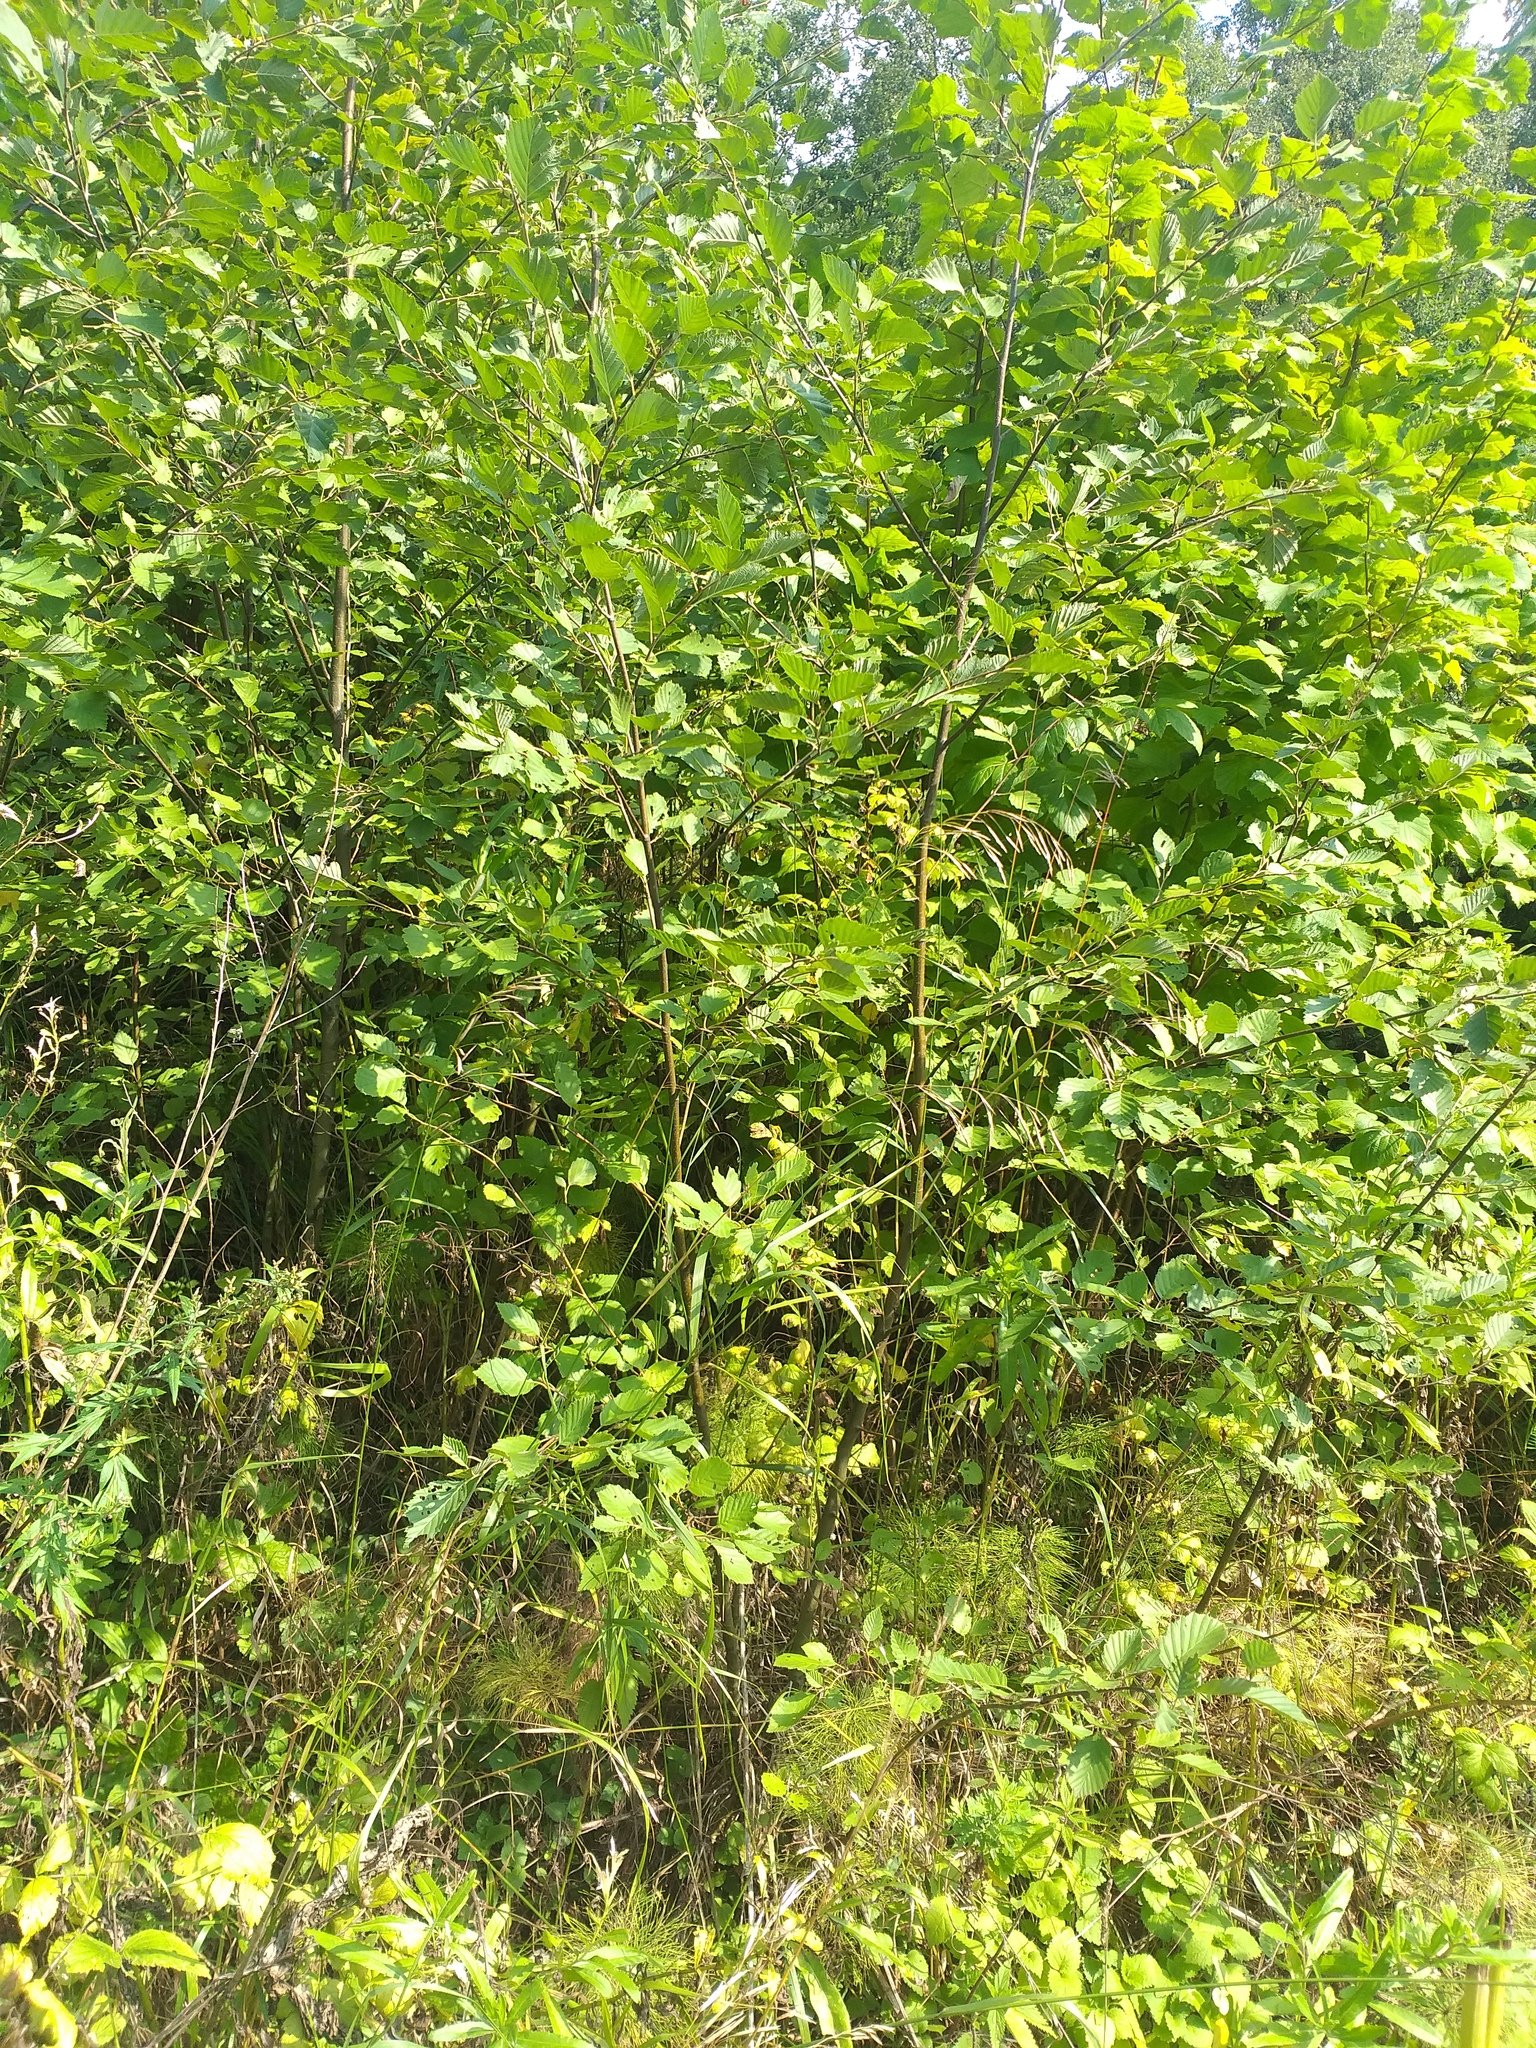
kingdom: Plantae
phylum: Tracheophyta
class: Magnoliopsida
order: Fagales
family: Betulaceae
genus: Alnus
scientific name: Alnus incana
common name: Grey alder
